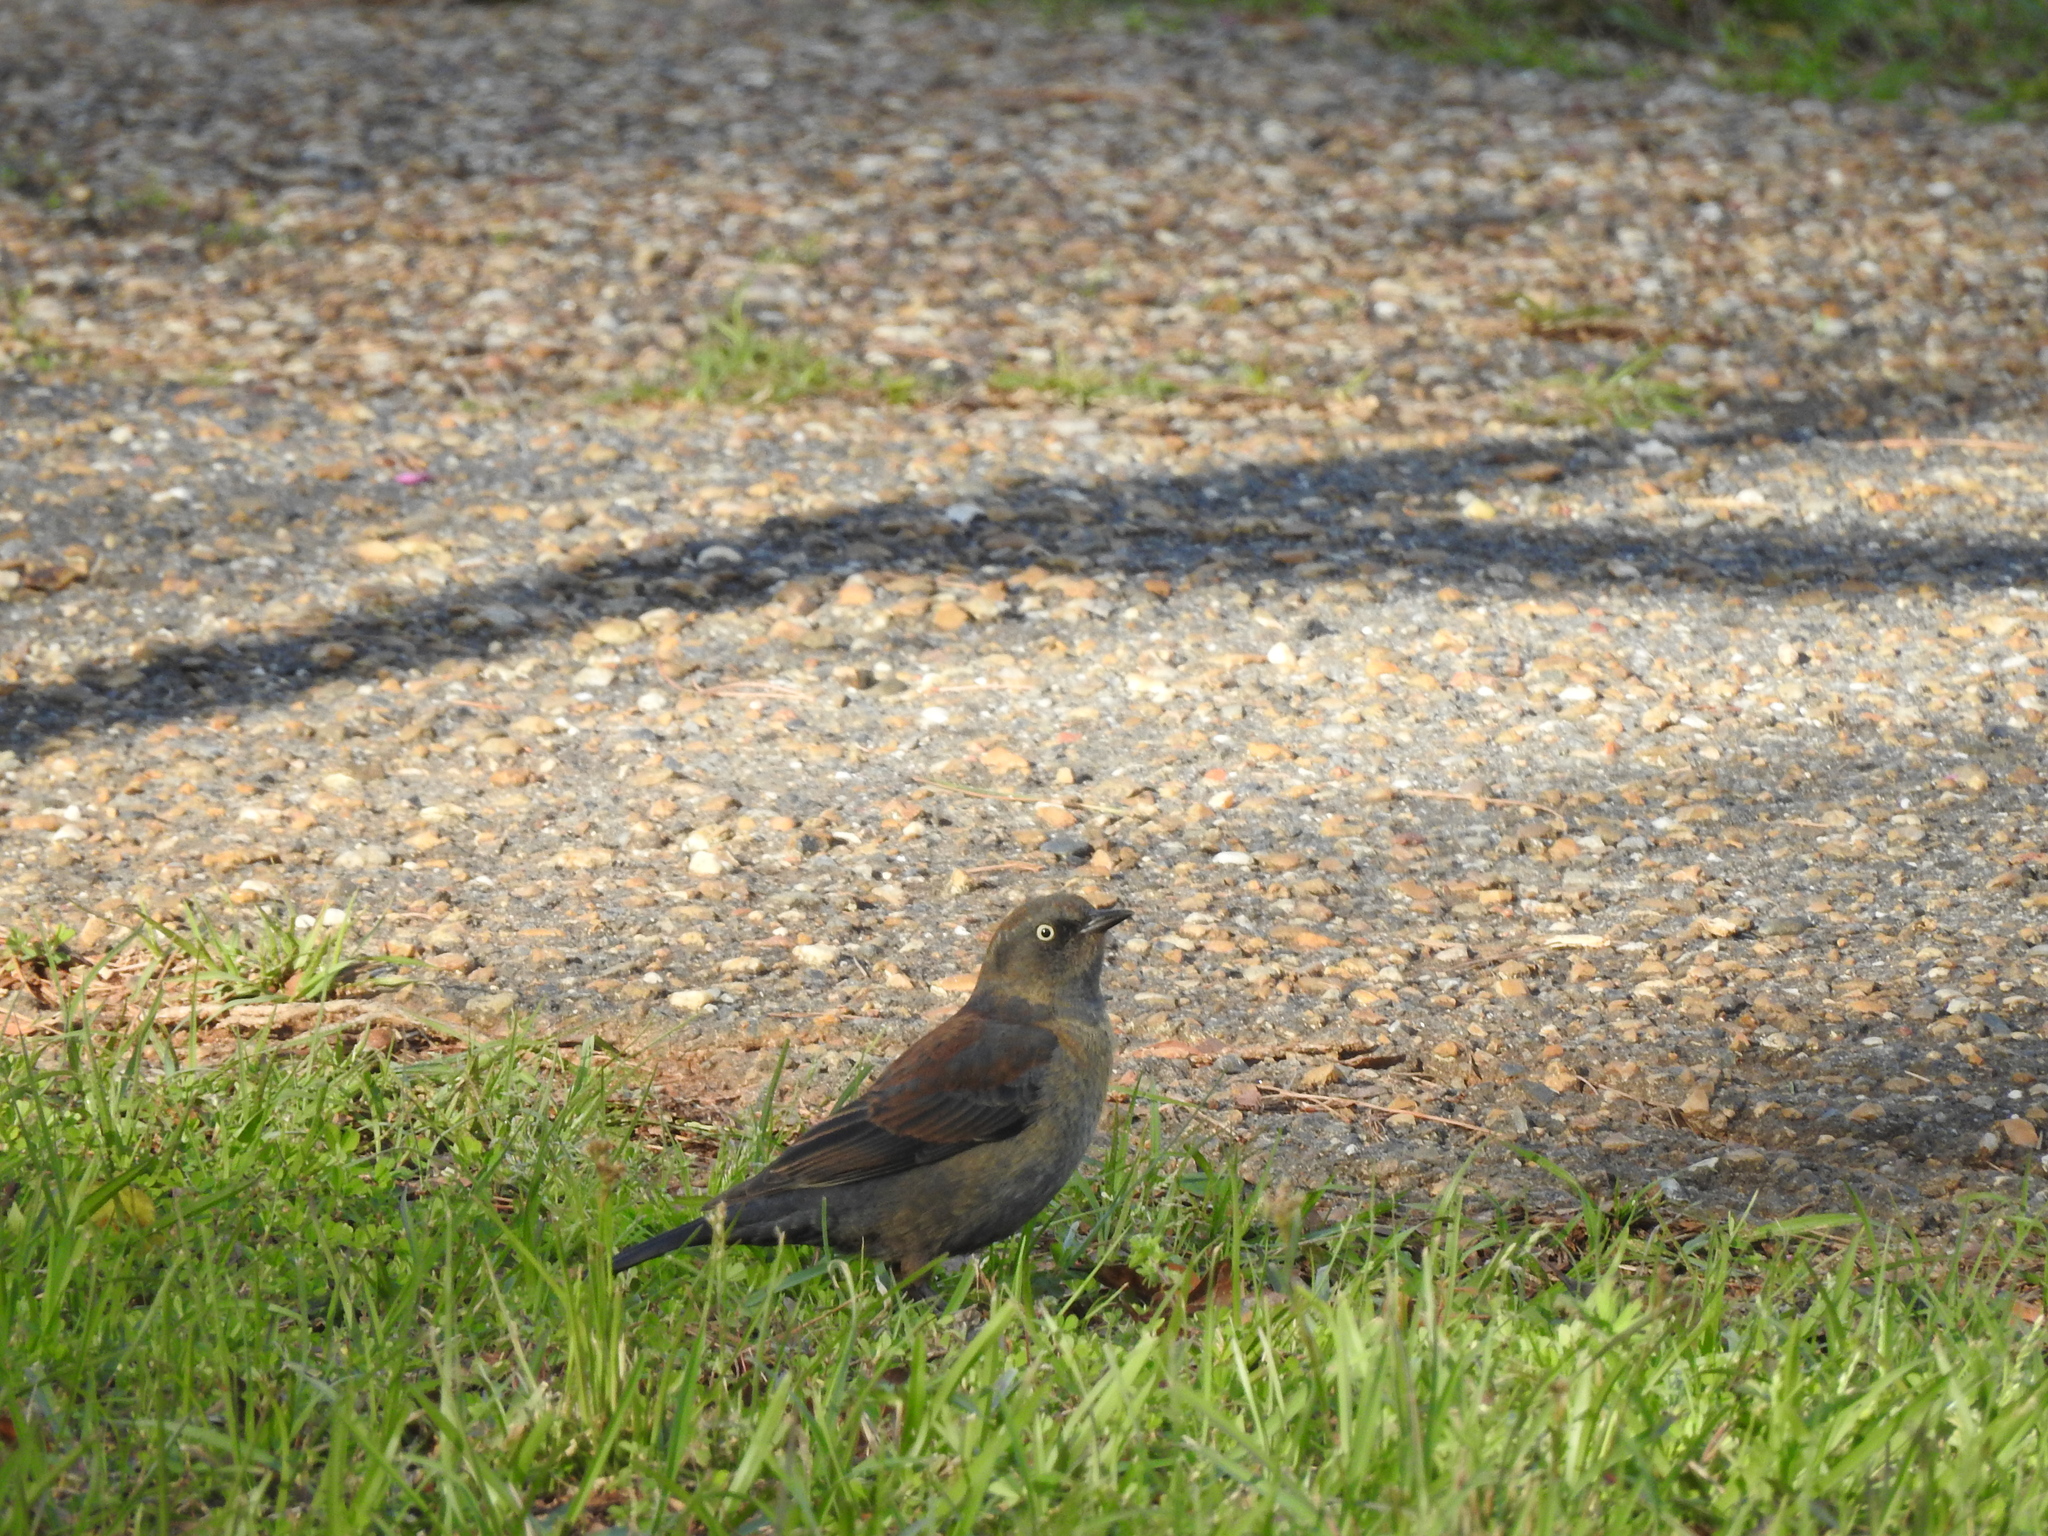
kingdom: Animalia
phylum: Chordata
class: Aves
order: Passeriformes
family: Icteridae
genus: Euphagus
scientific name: Euphagus carolinus
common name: Rusty blackbird
